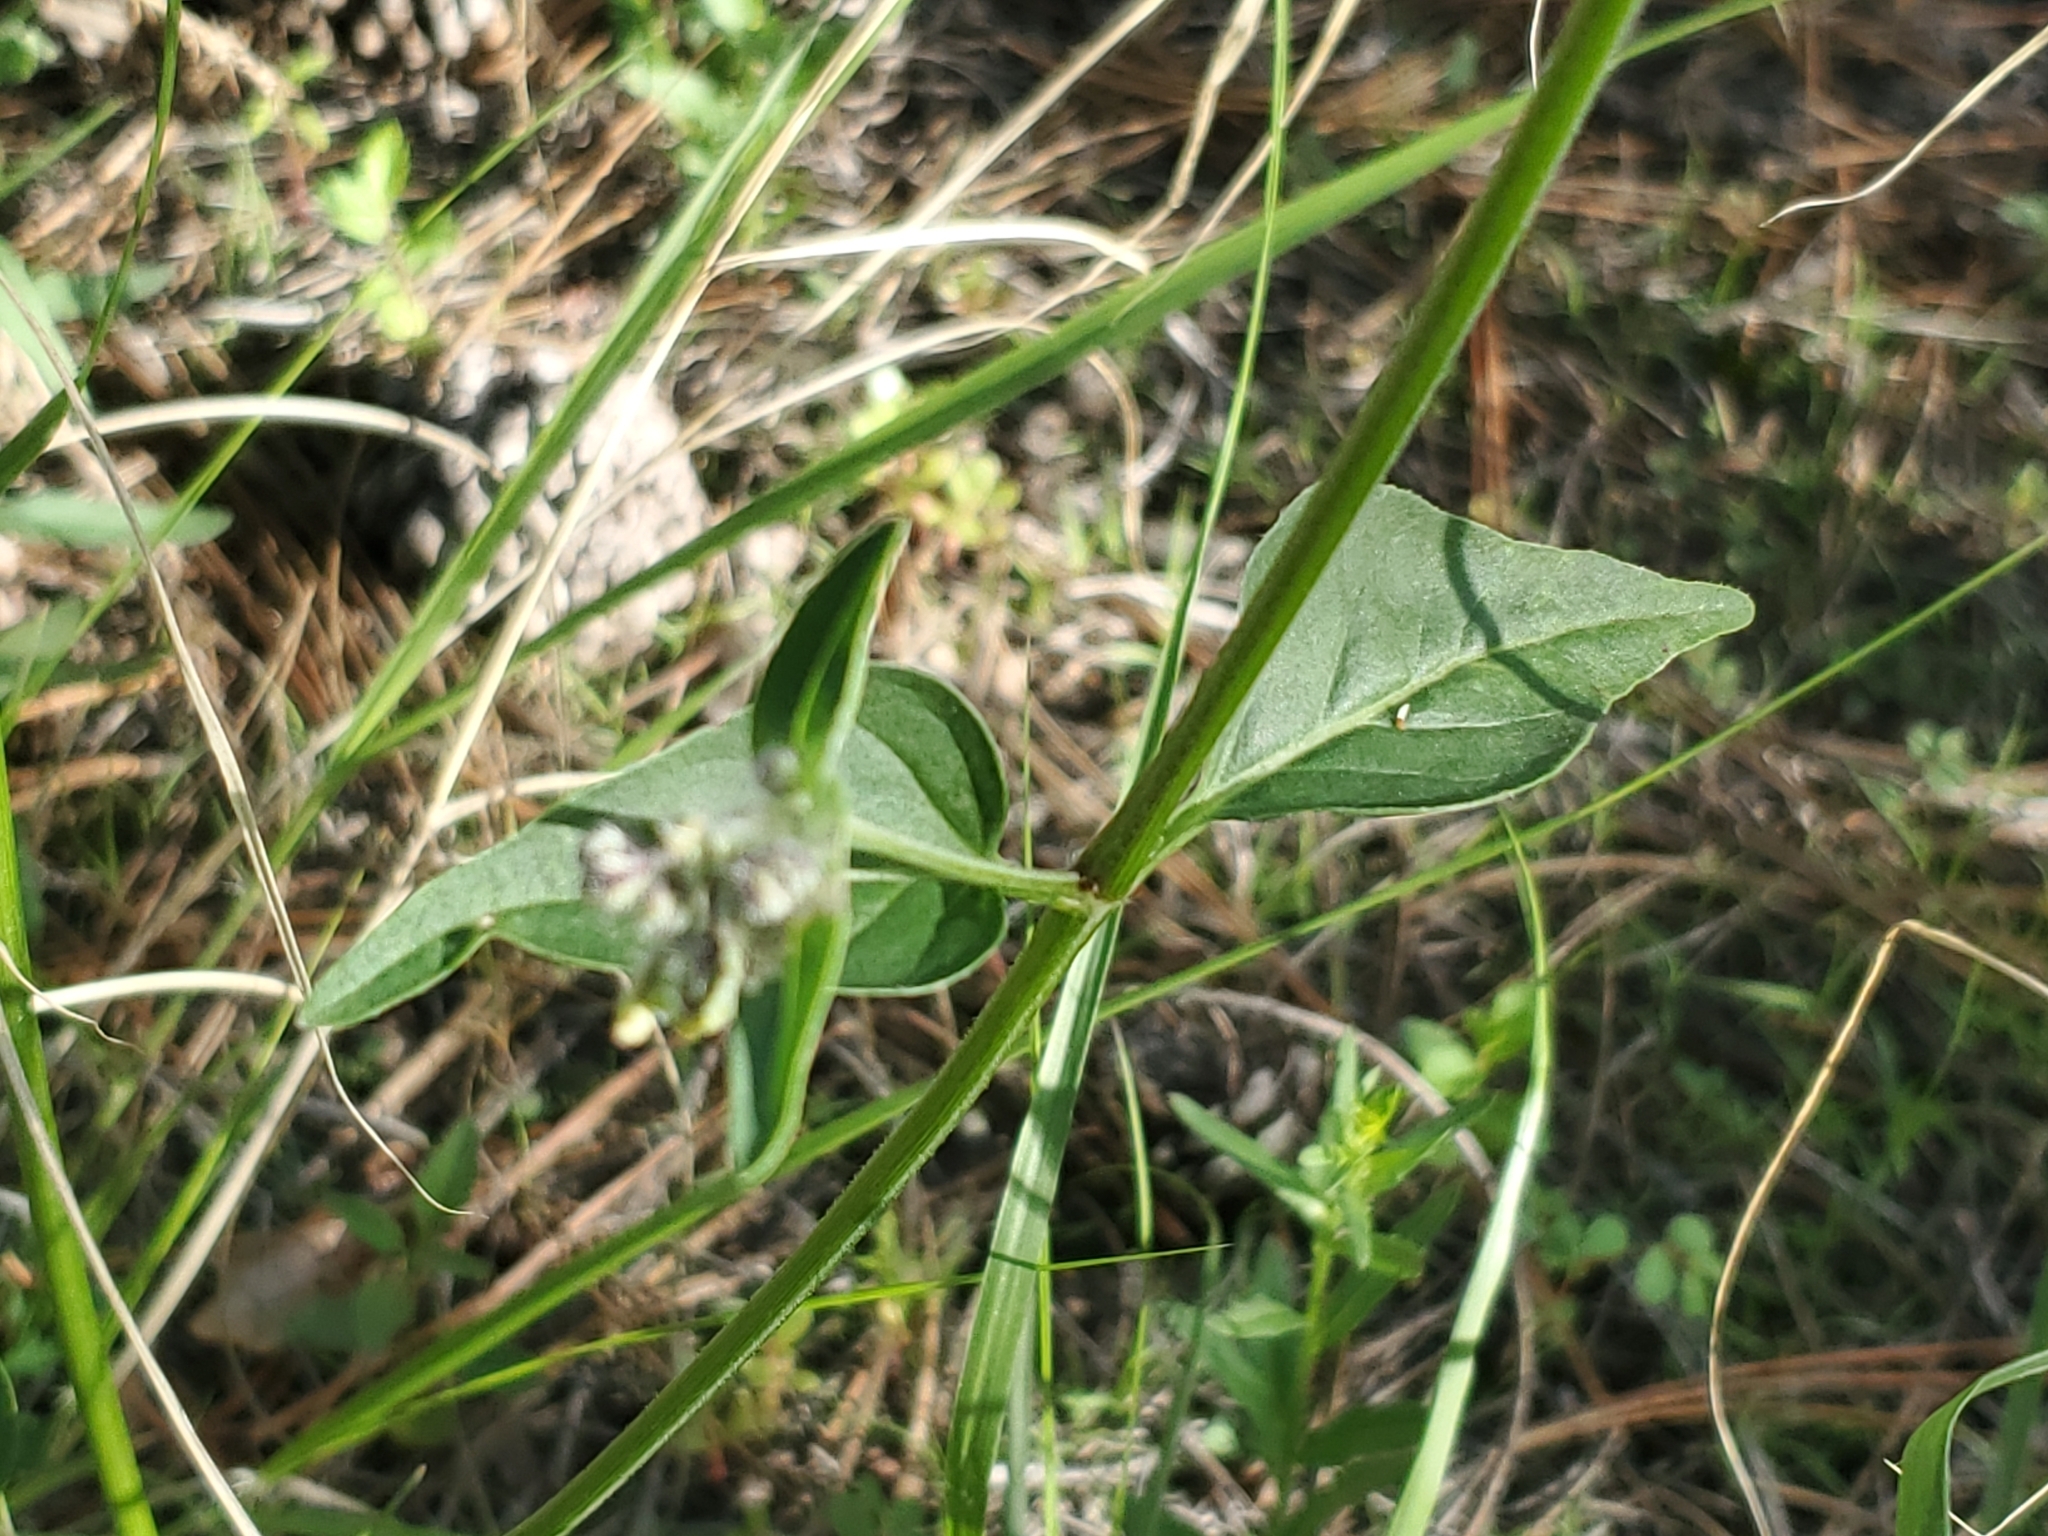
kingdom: Plantae
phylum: Tracheophyta
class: Magnoliopsida
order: Caryophyllales
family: Nyctaginaceae
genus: Mirabilis
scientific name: Mirabilis albida
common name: Hairy four-o'clock
